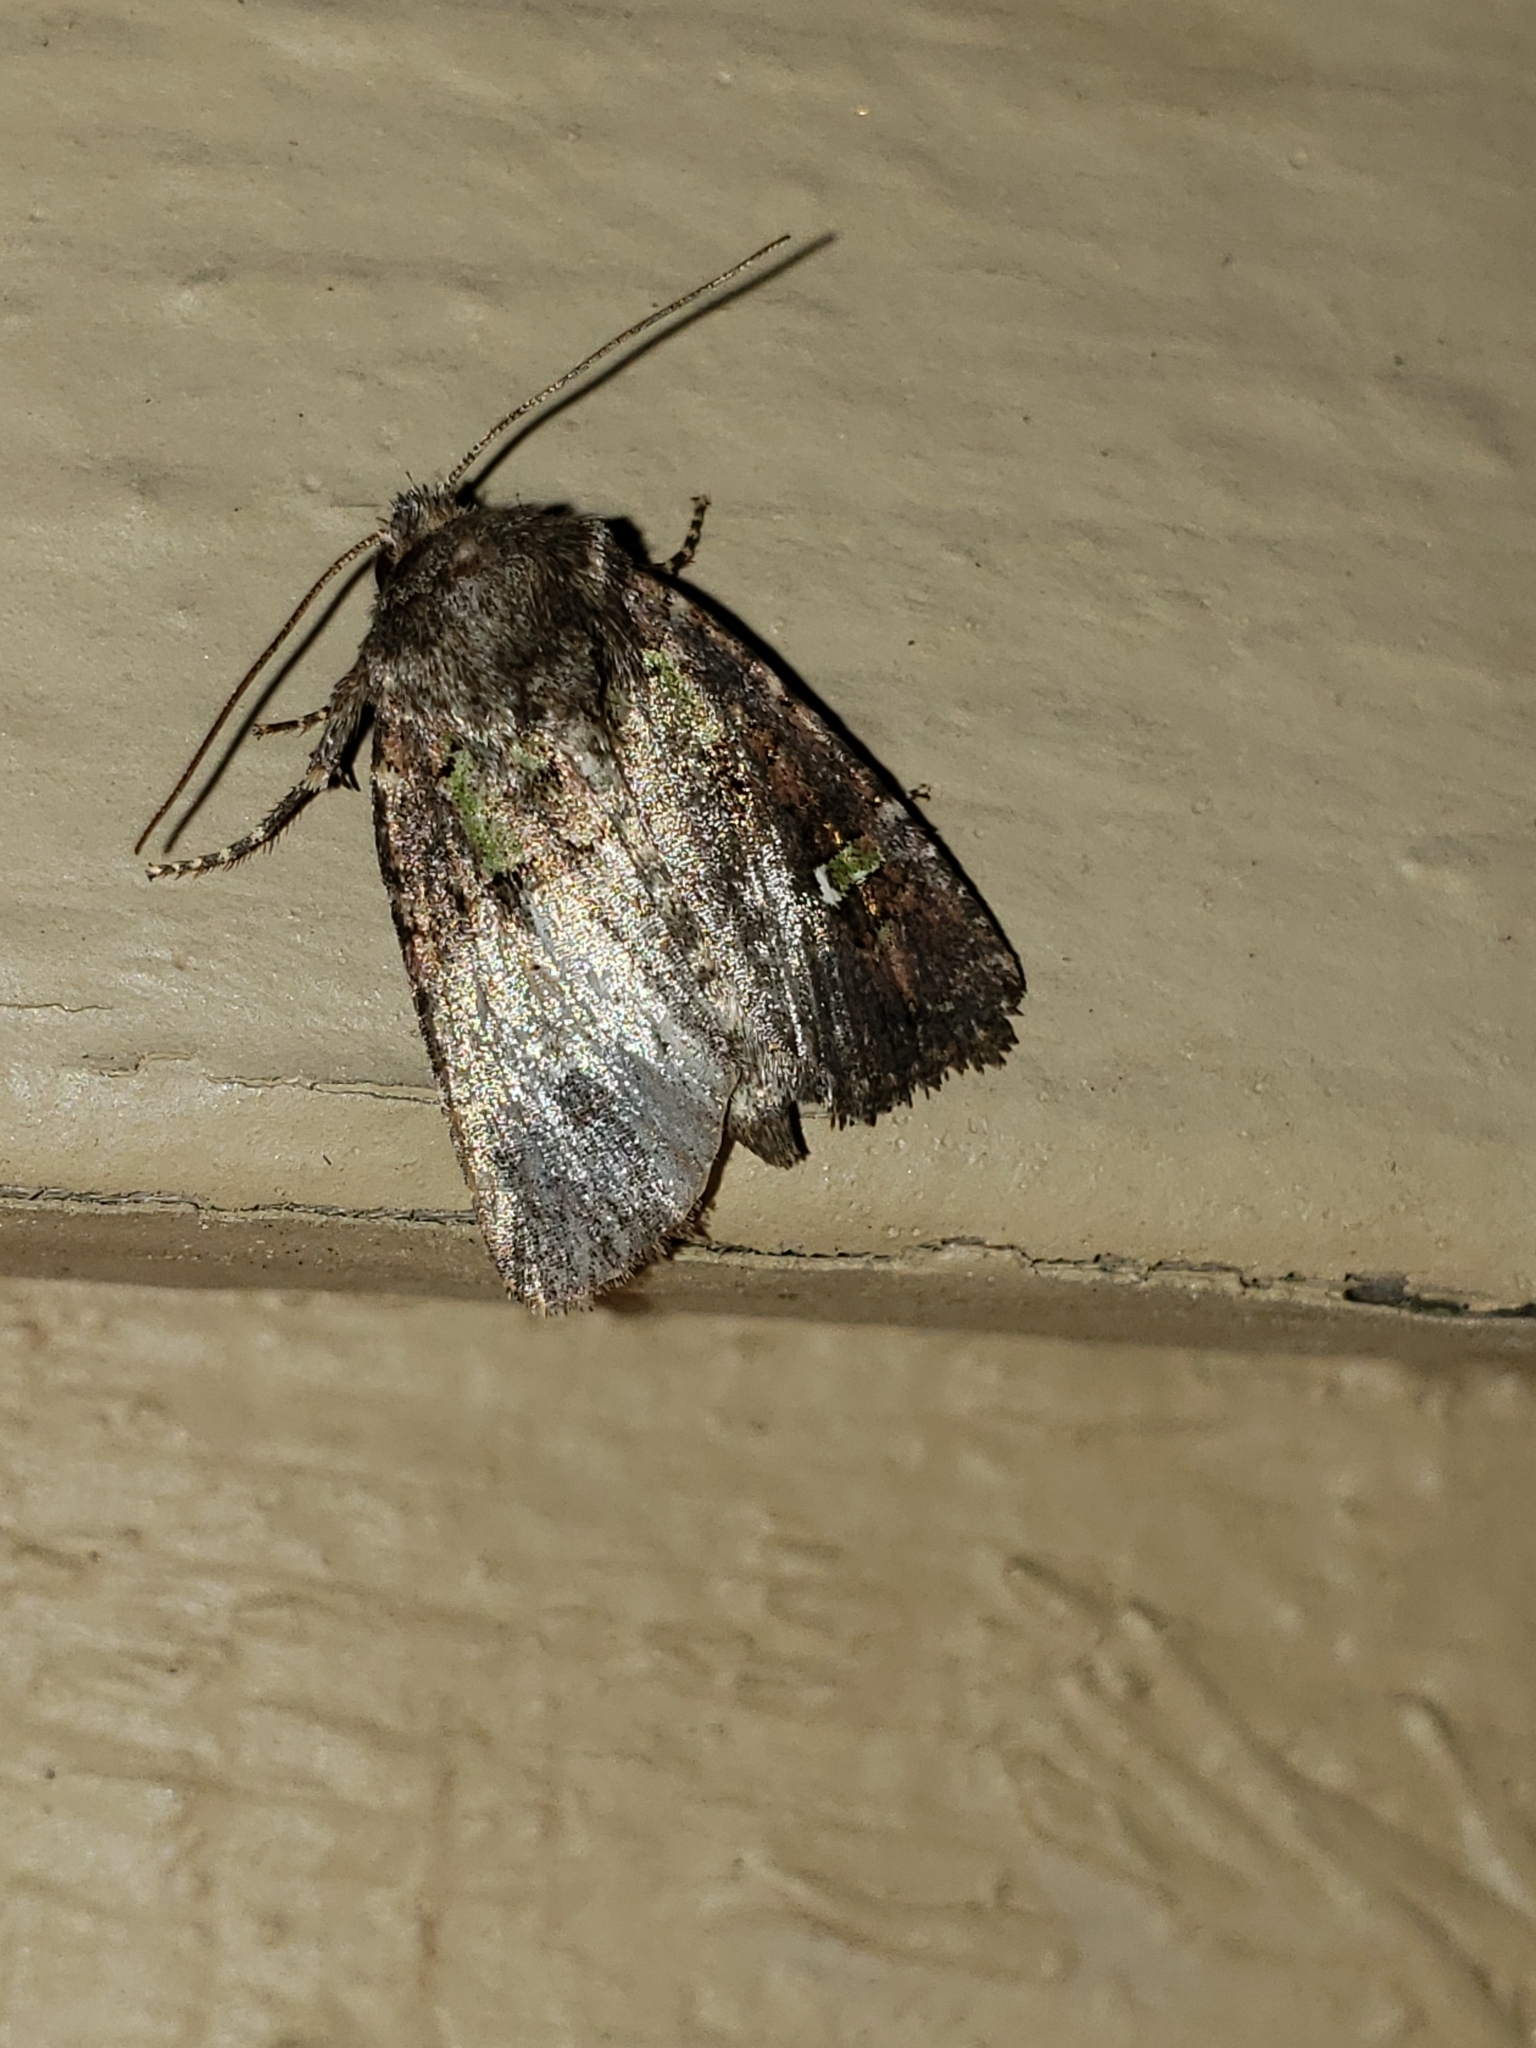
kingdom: Animalia
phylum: Arthropoda
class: Insecta
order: Lepidoptera
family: Noctuidae
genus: Lacinipolia
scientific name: Lacinipolia renigera
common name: Kidney-spotted minor
